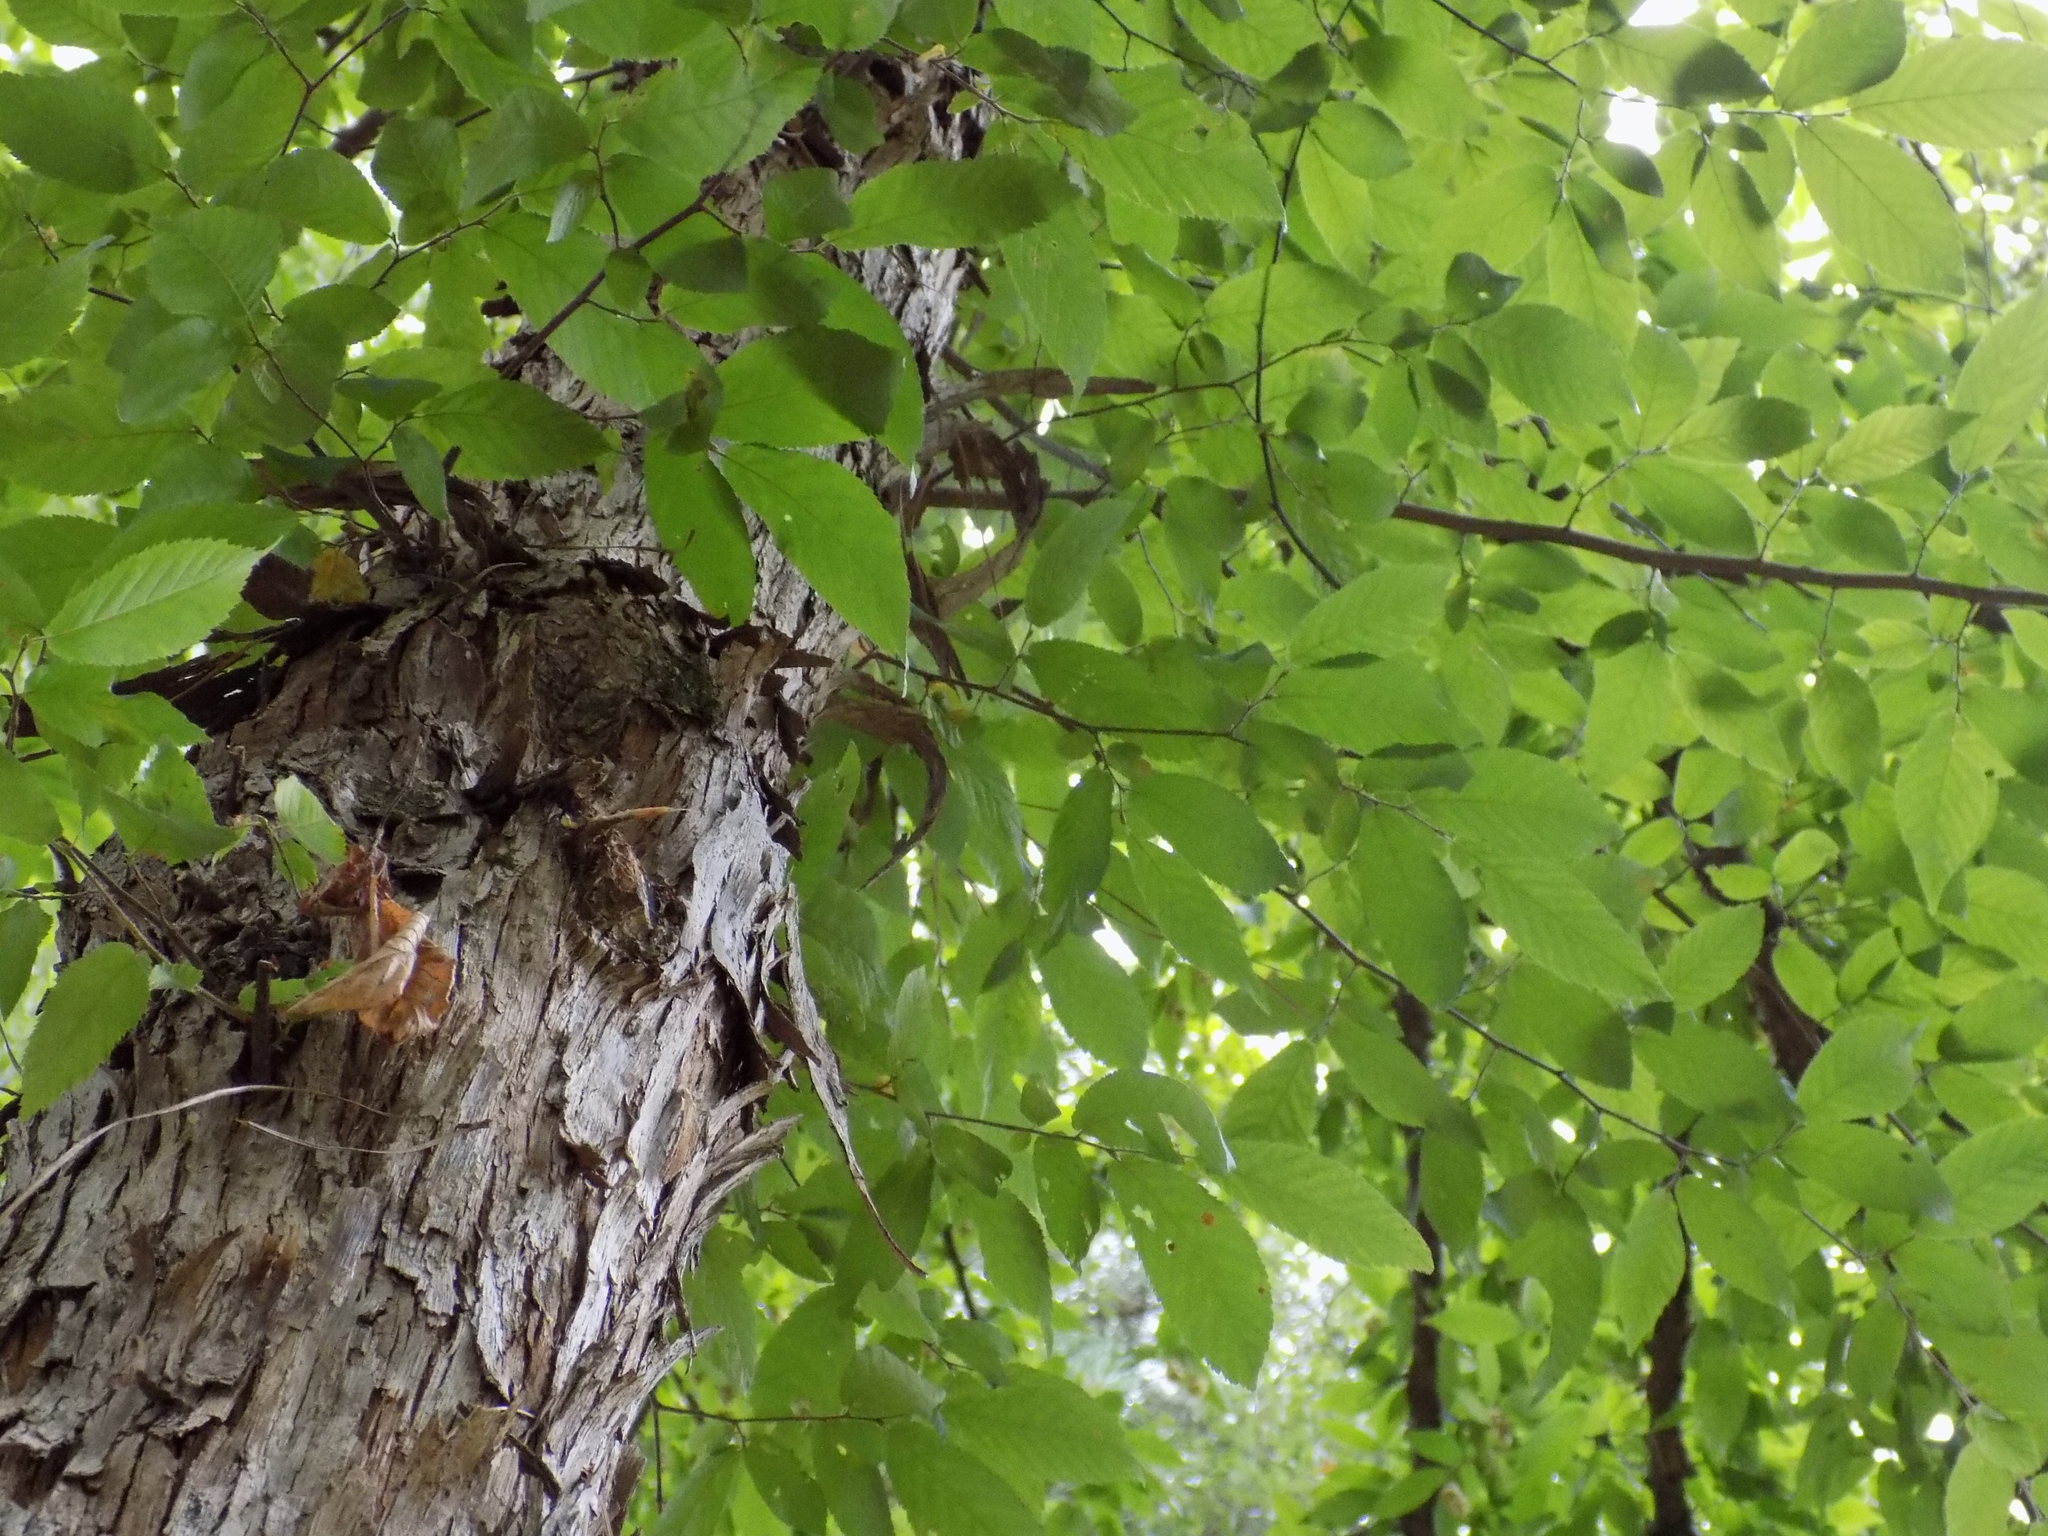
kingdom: Plantae
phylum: Tracheophyta
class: Magnoliopsida
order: Fagales
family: Betulaceae
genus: Ostrya
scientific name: Ostrya virginiana
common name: Ironwood
